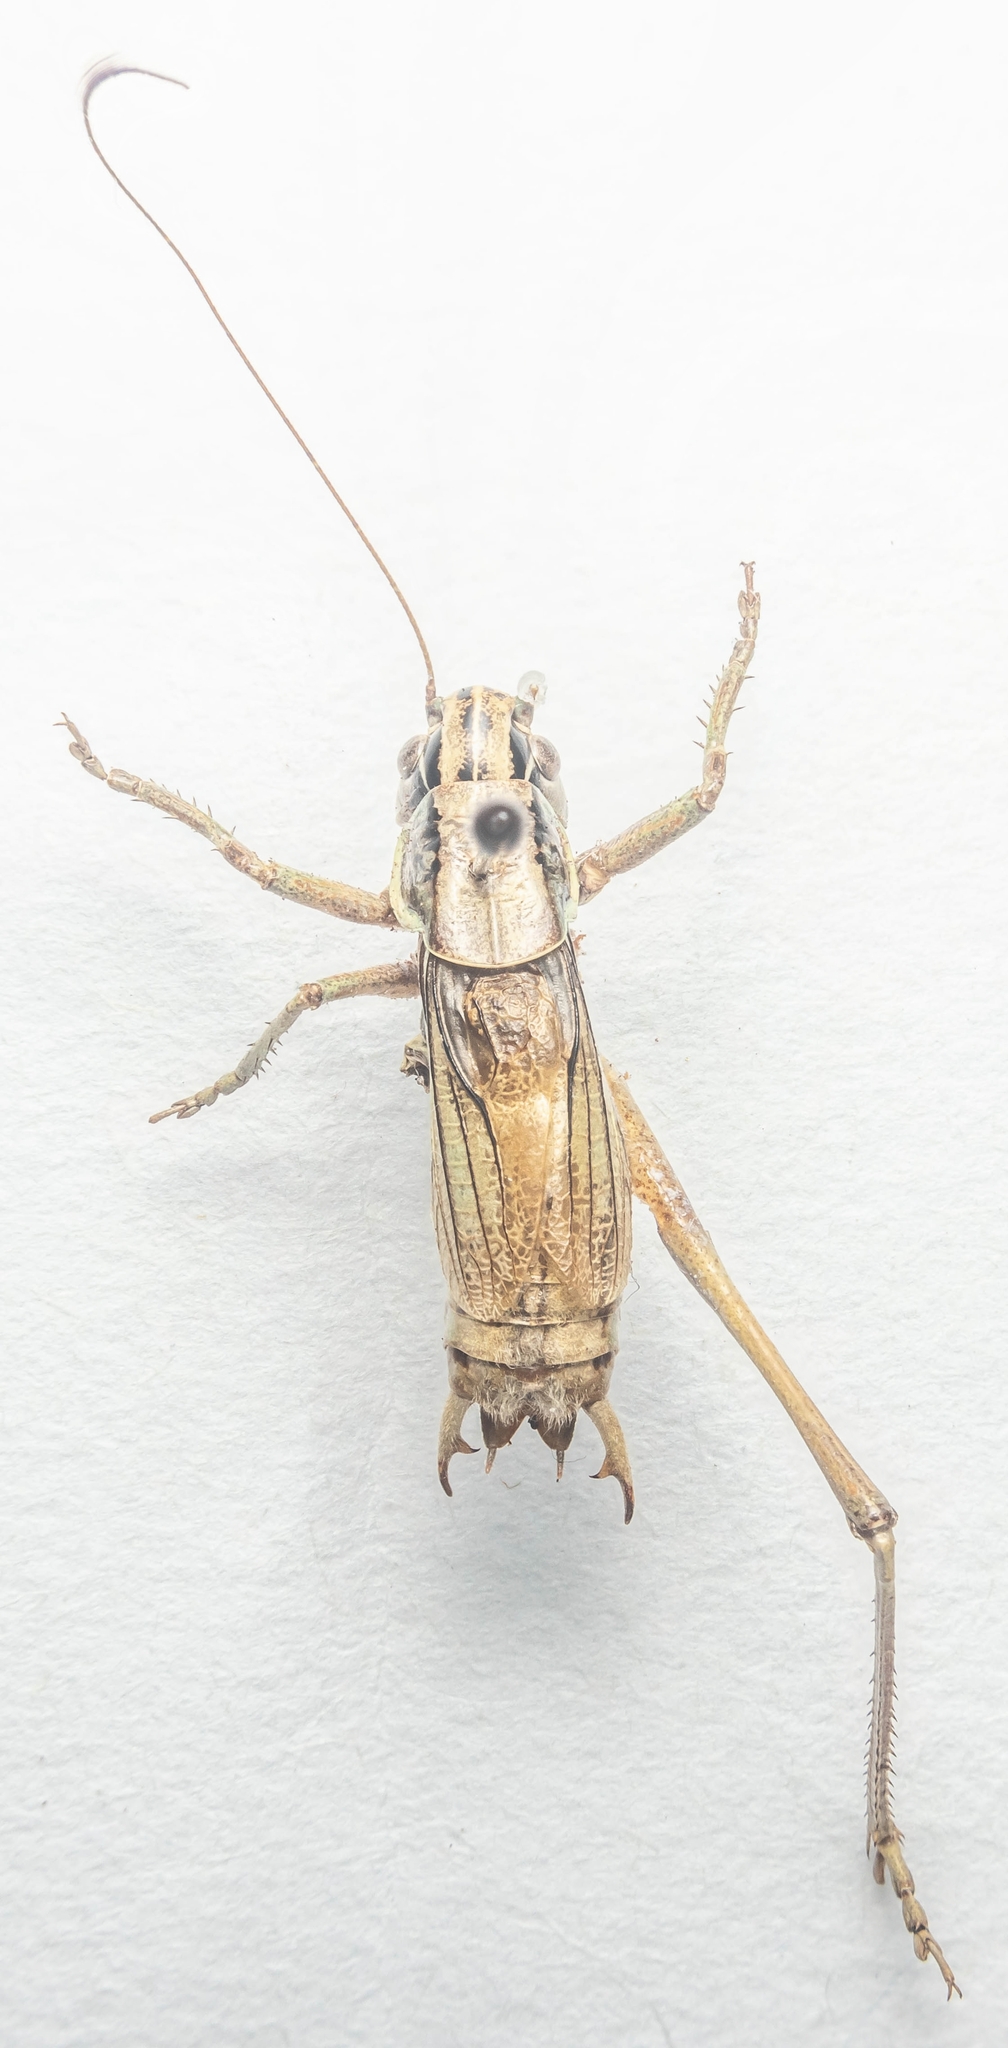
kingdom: Animalia
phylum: Arthropoda
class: Insecta
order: Orthoptera
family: Tettigoniidae
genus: Roeseliana
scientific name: Roeseliana roeselii
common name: Roesel's bush cricket
